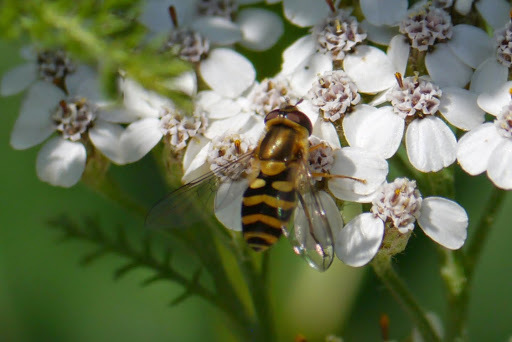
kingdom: Animalia
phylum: Arthropoda
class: Insecta
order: Diptera
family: Syrphidae
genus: Syrphus
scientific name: Syrphus
